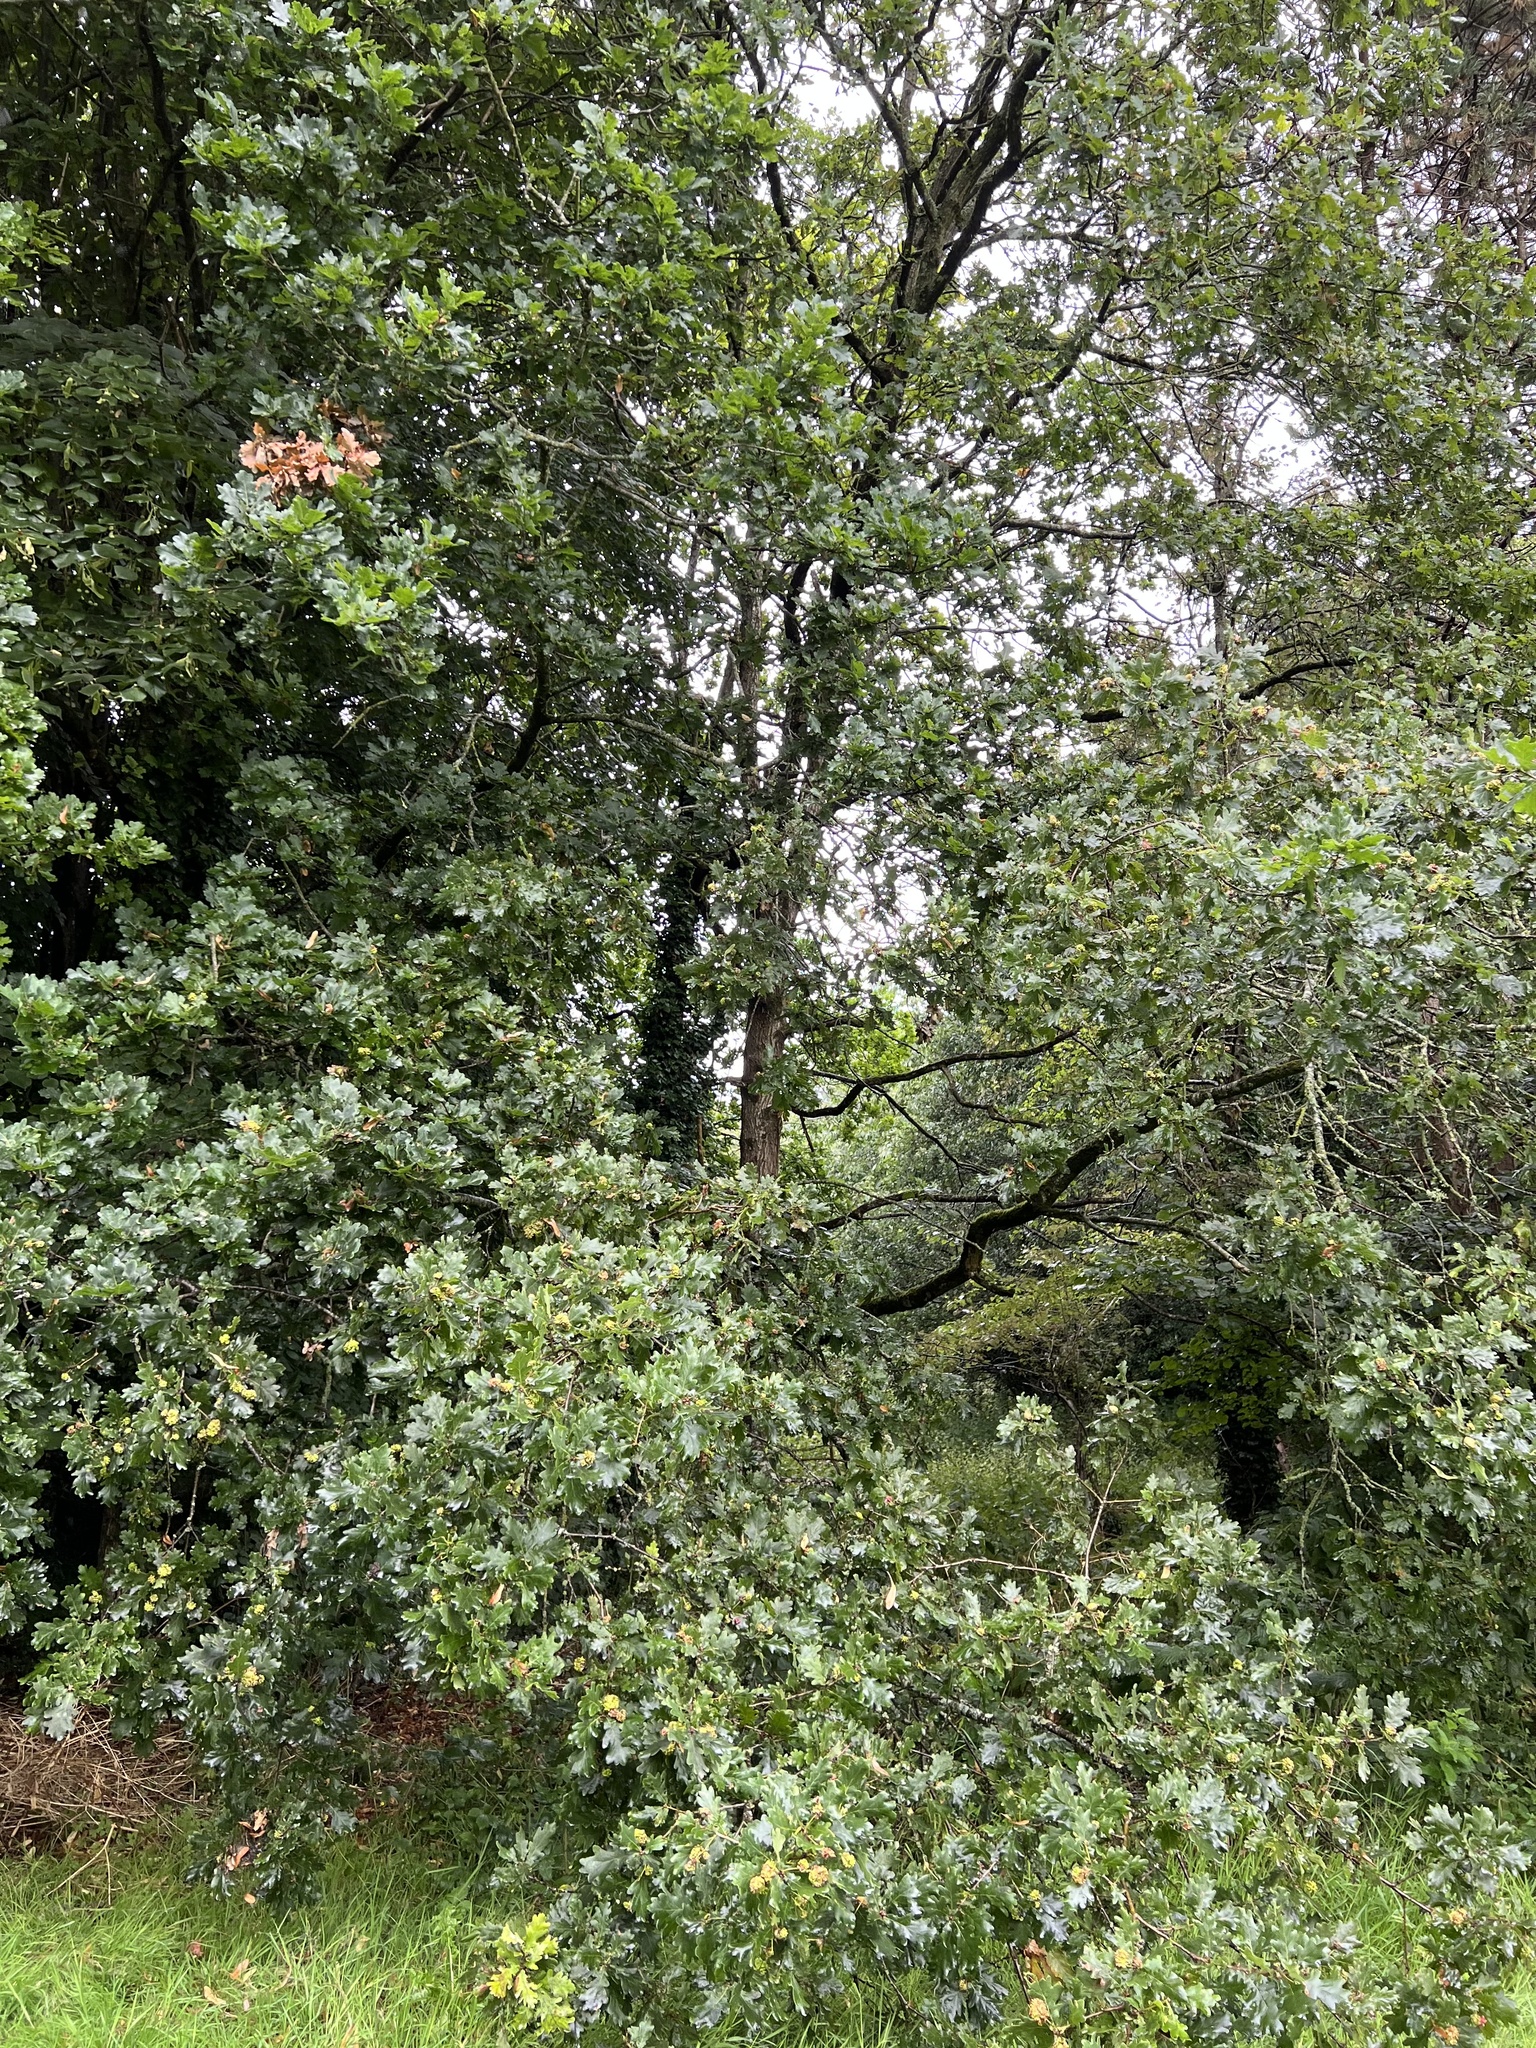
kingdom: Plantae
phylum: Tracheophyta
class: Magnoliopsida
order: Fagales
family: Fagaceae
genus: Quercus
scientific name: Quercus robur
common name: Pedunculate oak
